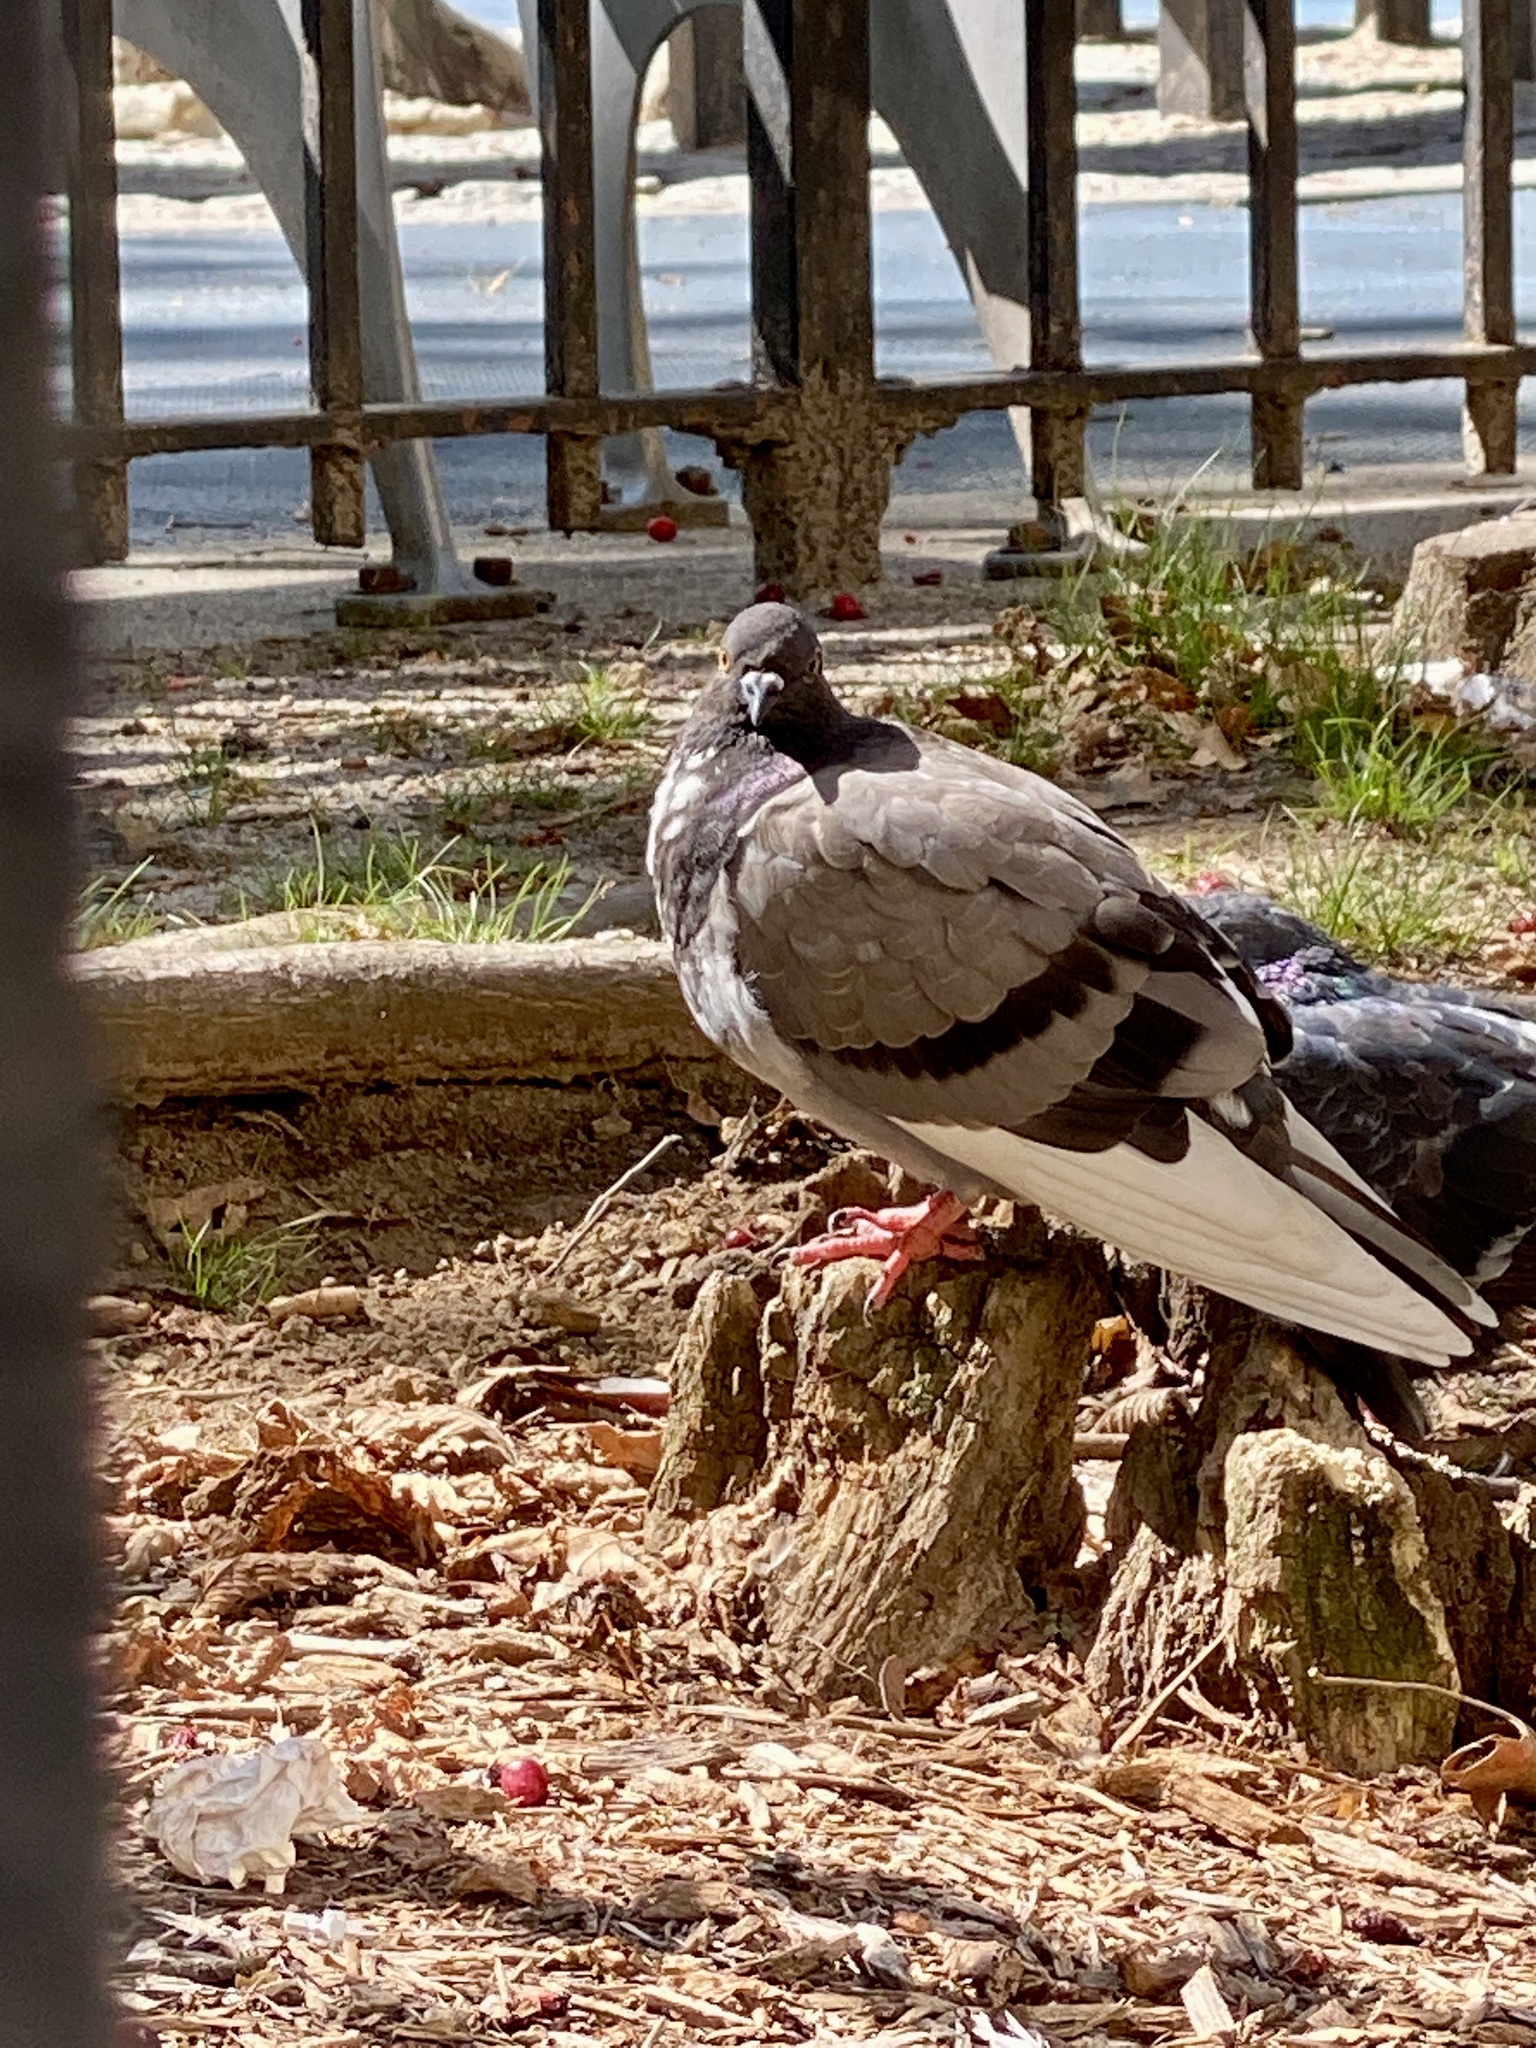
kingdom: Animalia
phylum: Chordata
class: Aves
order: Columbiformes
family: Columbidae
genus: Columba
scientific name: Columba livia
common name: Rock pigeon
